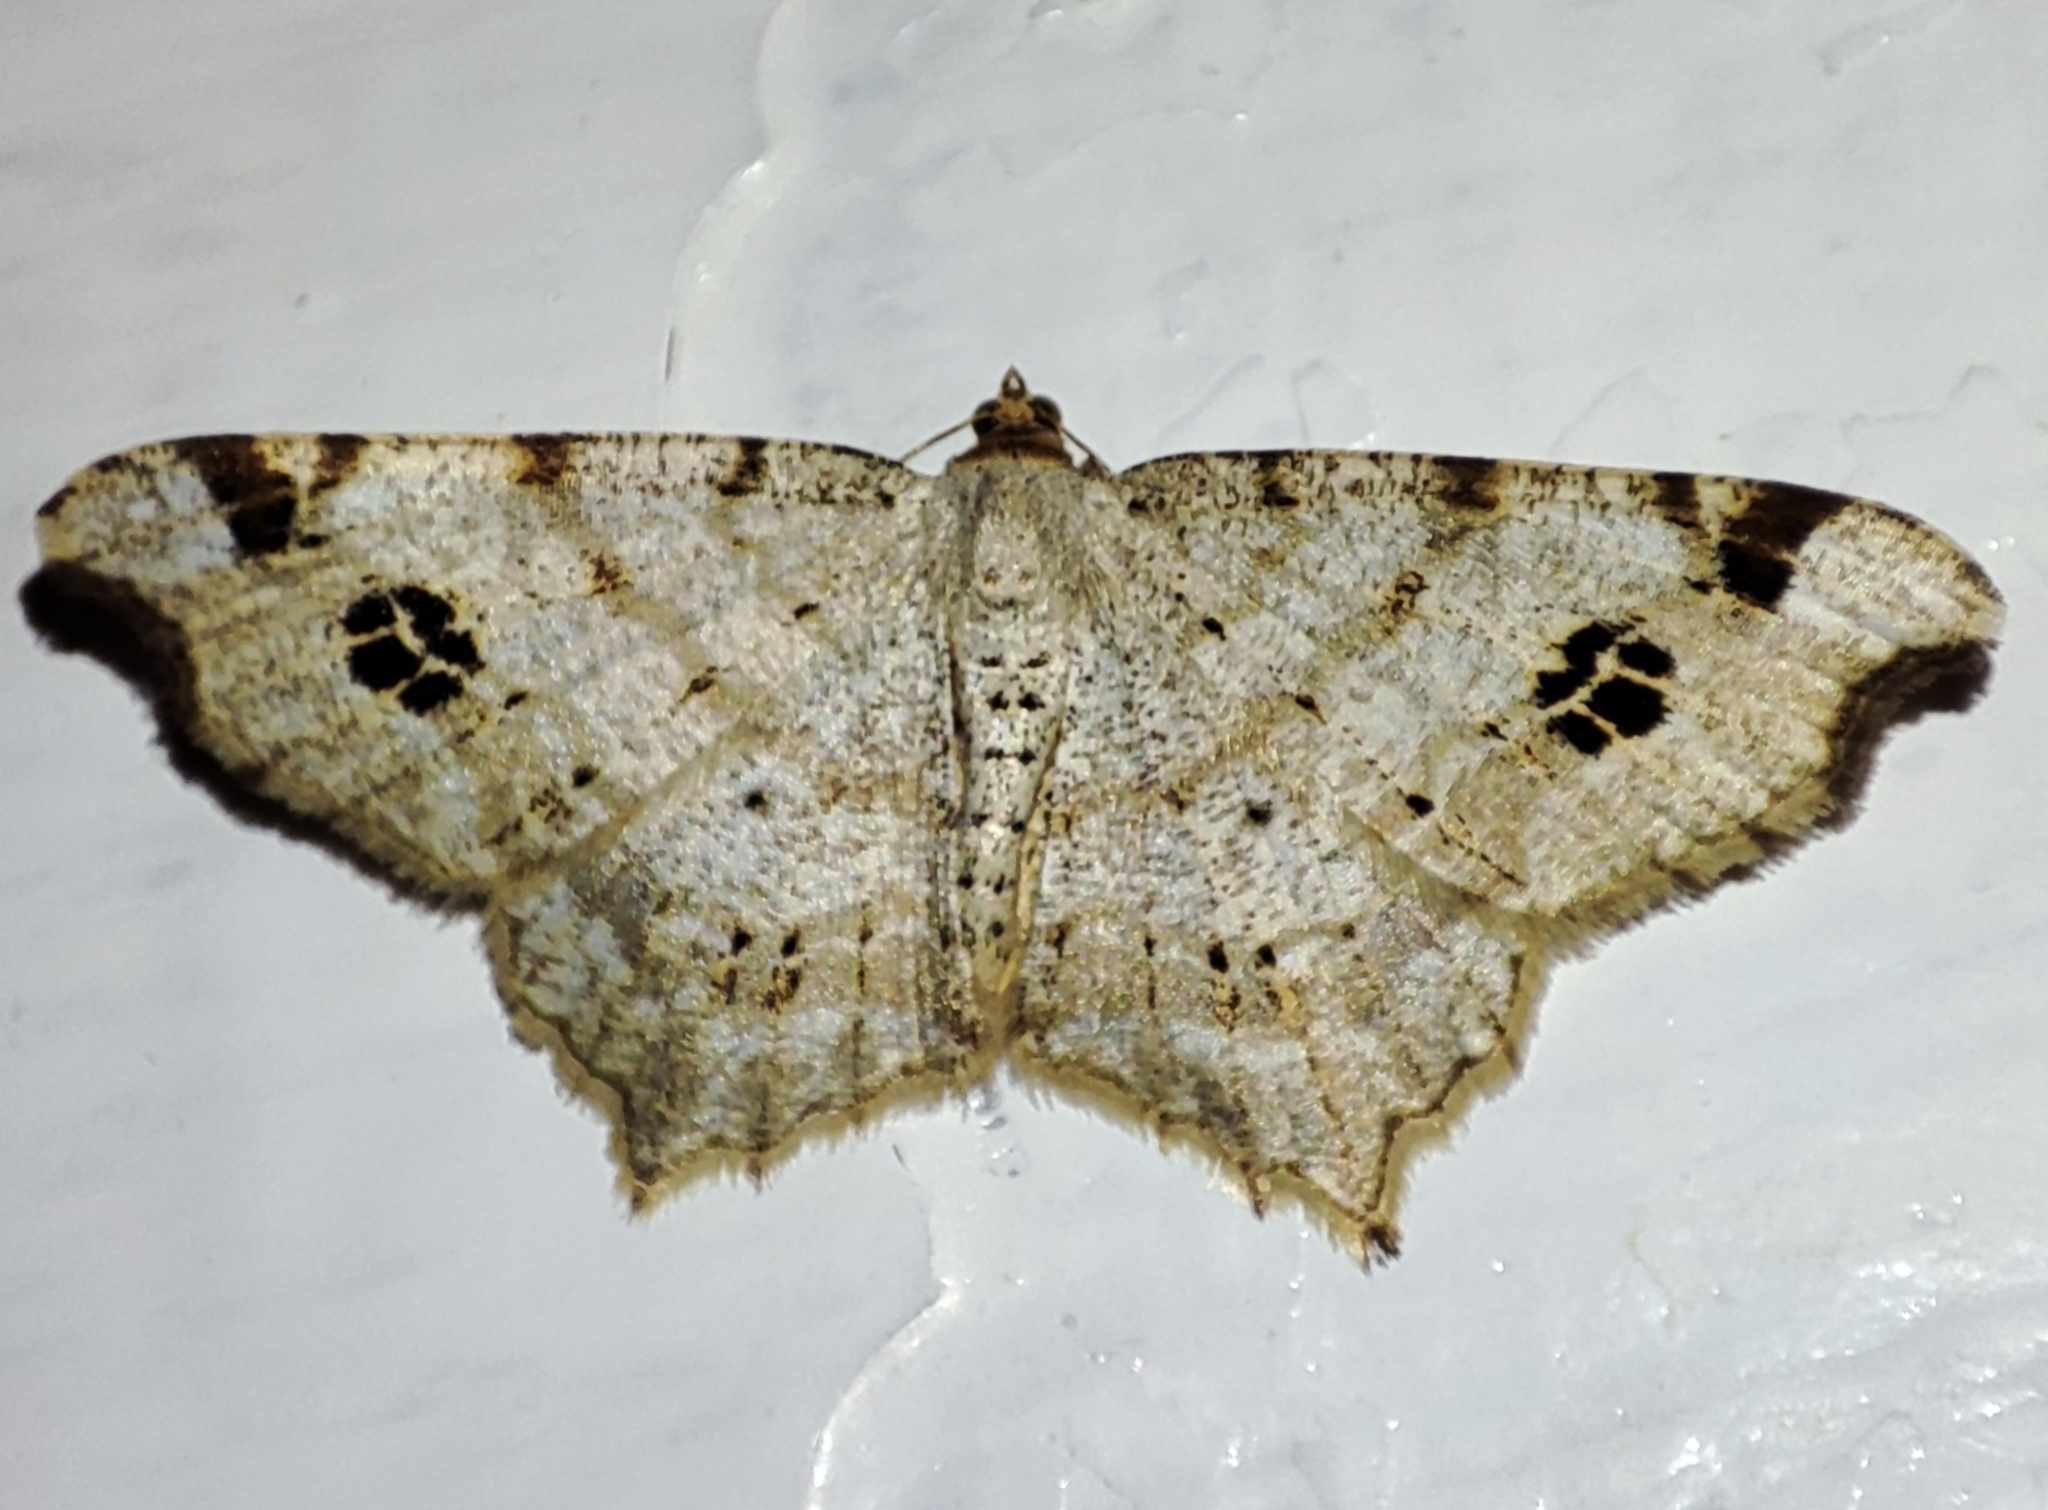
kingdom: Animalia
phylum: Arthropoda
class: Insecta
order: Lepidoptera
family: Geometridae
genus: Macaria
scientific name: Macaria notata
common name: Peacock moth
